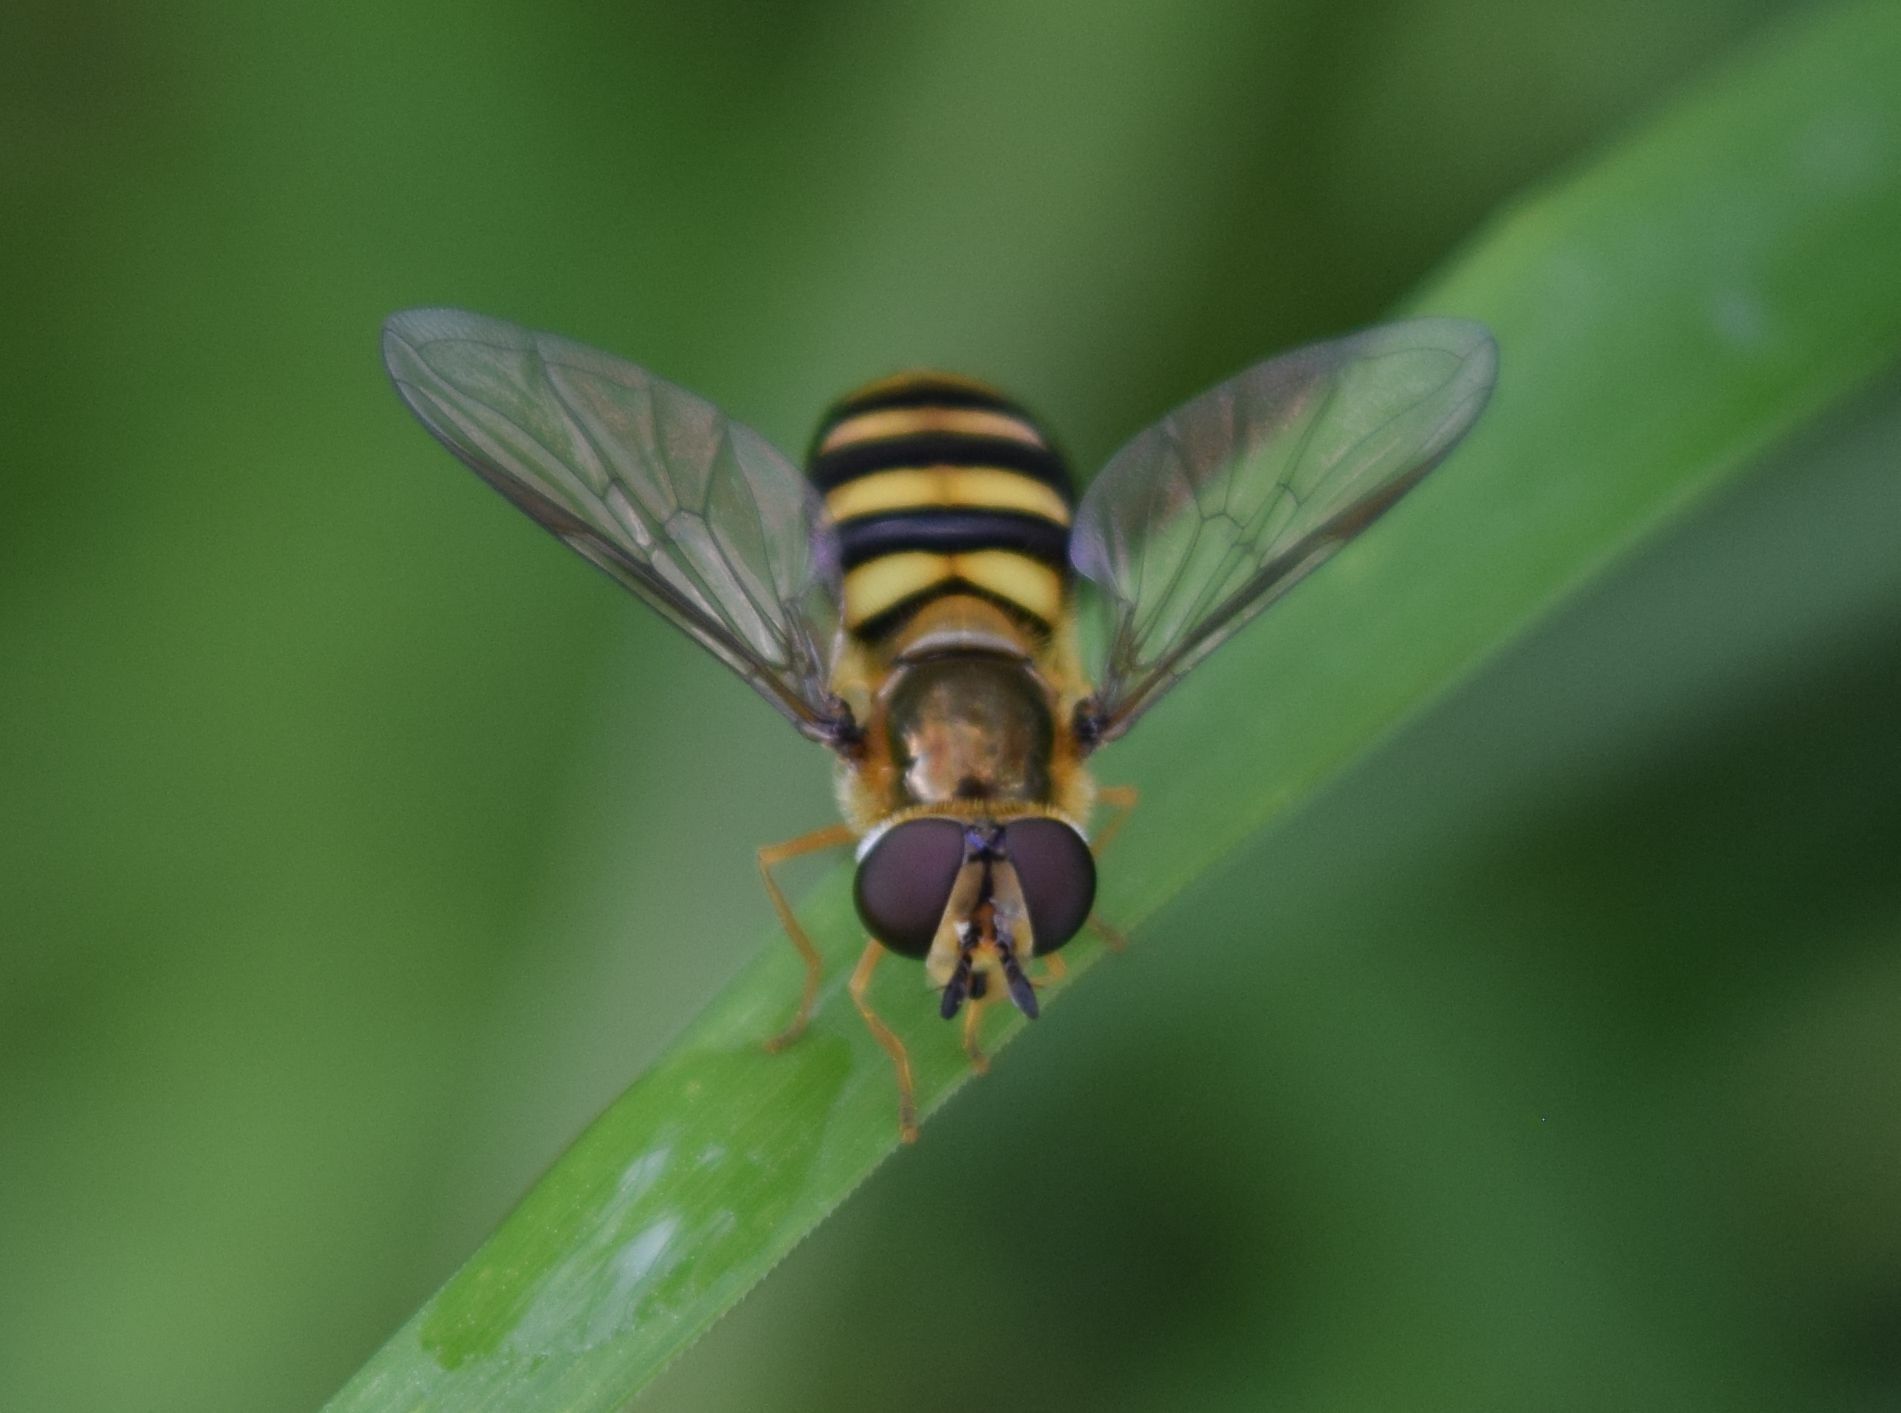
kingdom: Animalia
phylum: Arthropoda
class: Insecta
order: Diptera
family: Syrphidae
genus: Eupeodes
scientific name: Eupeodes
